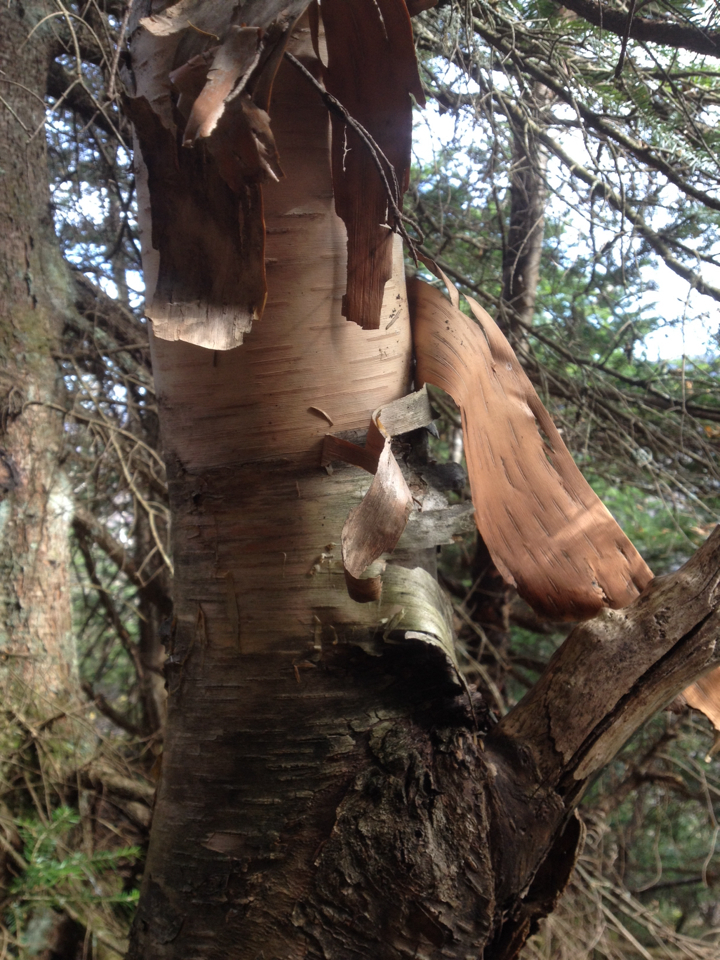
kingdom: Plantae
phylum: Tracheophyta
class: Magnoliopsida
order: Fagales
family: Betulaceae
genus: Betula
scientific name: Betula cordifolia
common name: Mountain white birch
